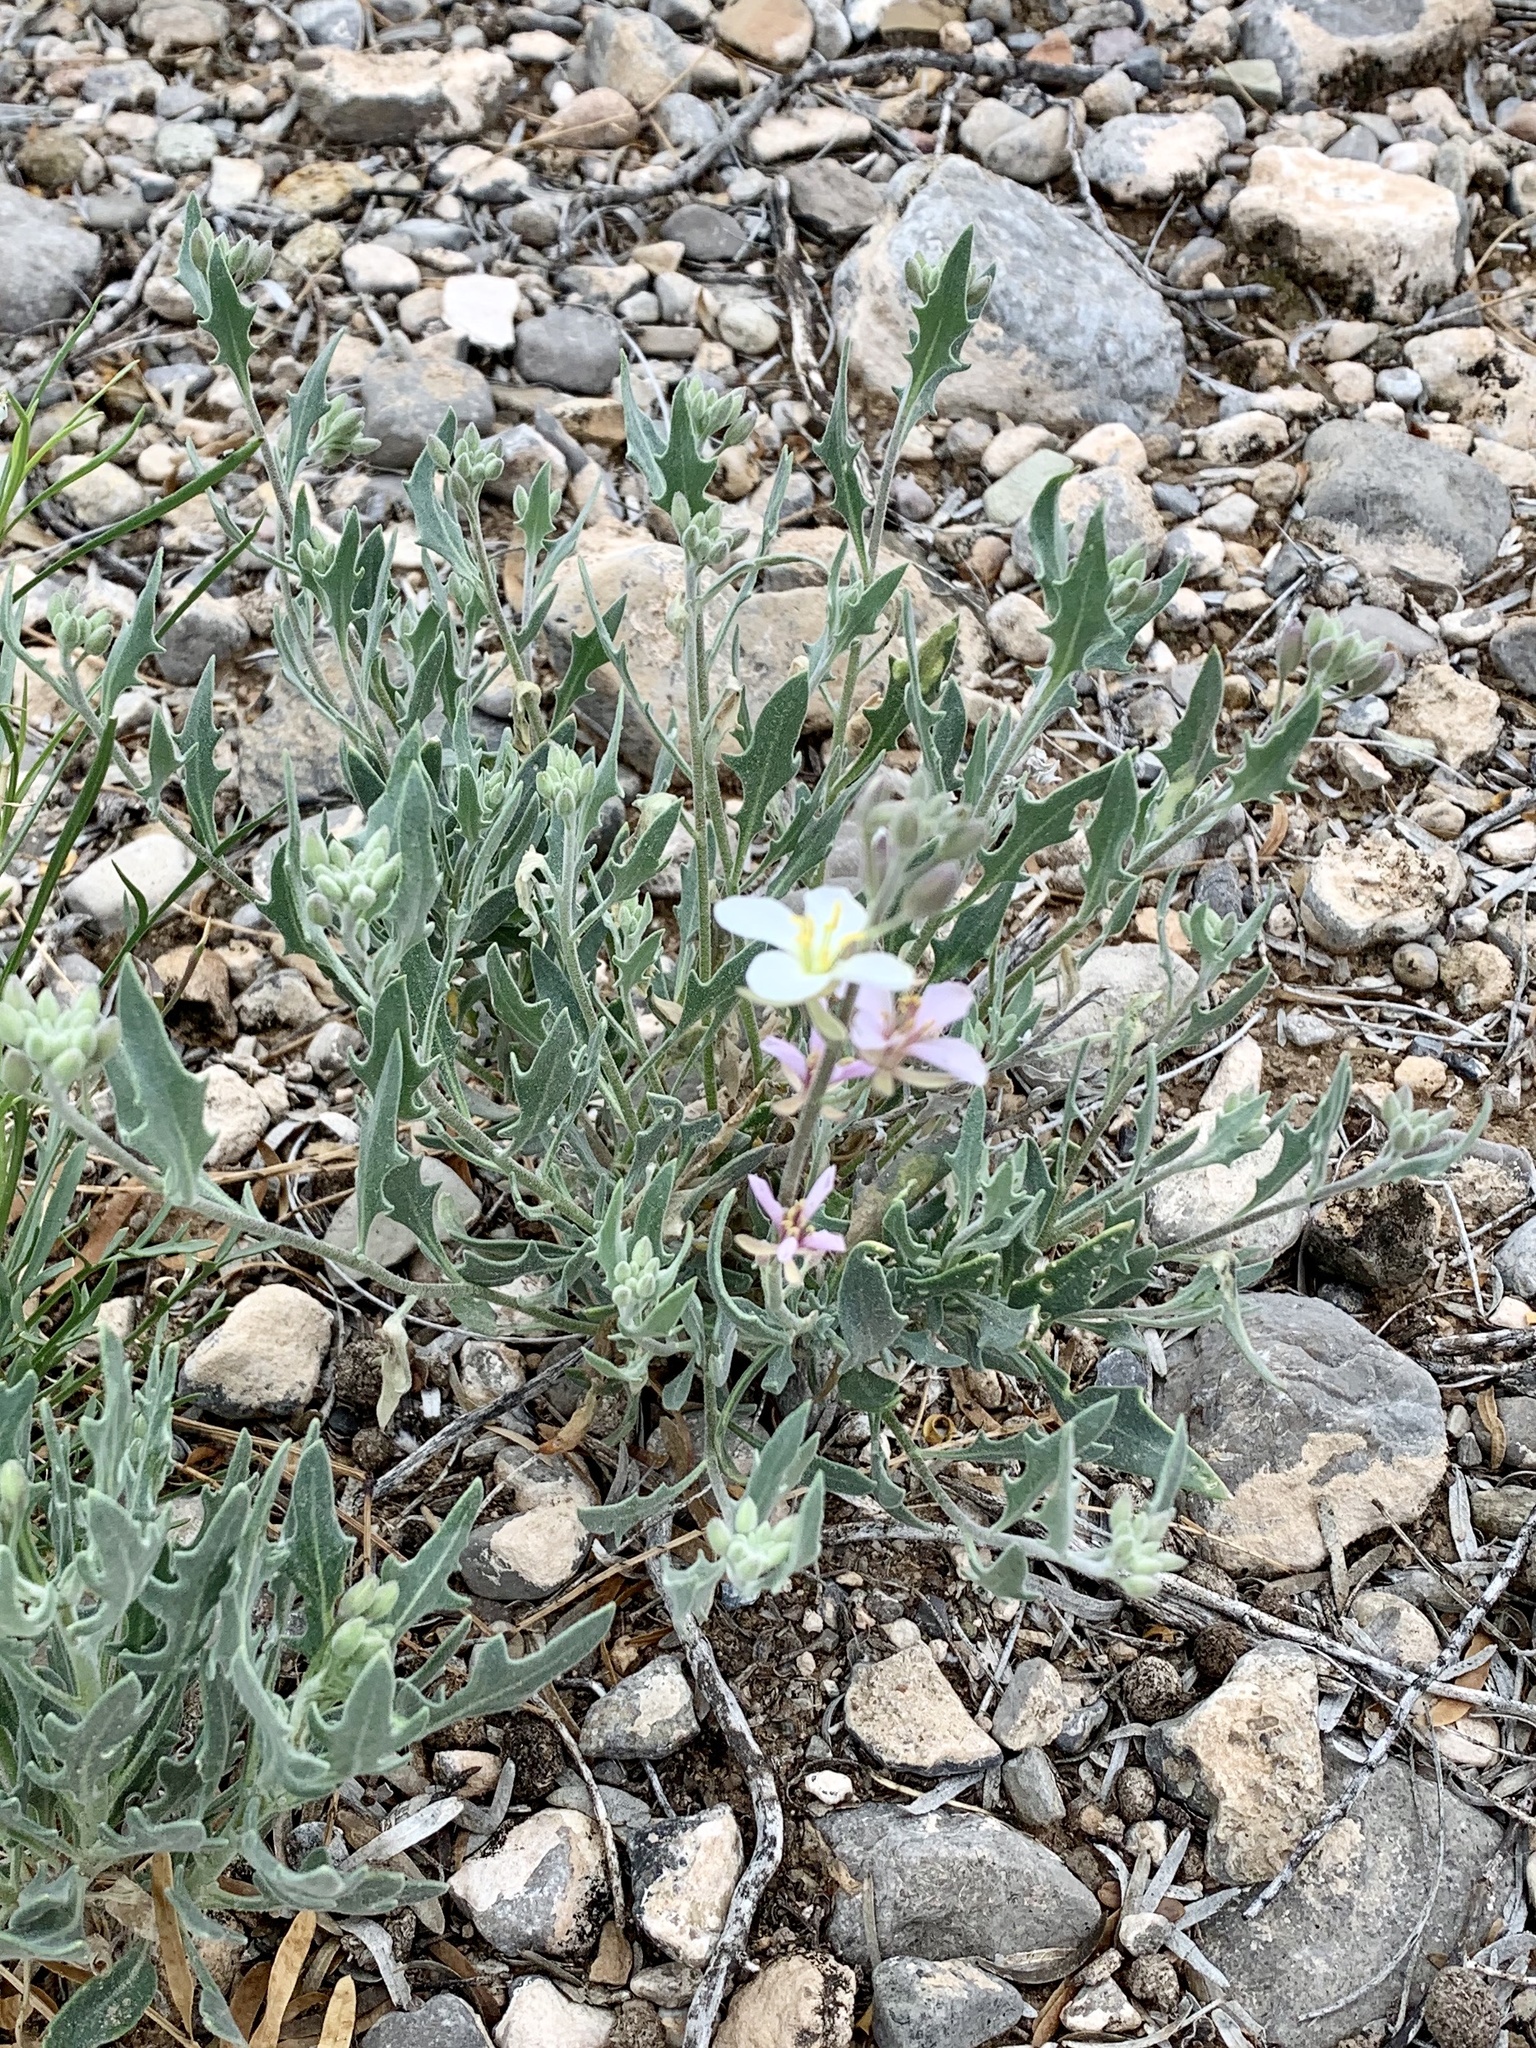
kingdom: Plantae
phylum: Tracheophyta
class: Magnoliopsida
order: Brassicales
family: Brassicaceae
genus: Nerisyrenia
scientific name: Nerisyrenia camporum
